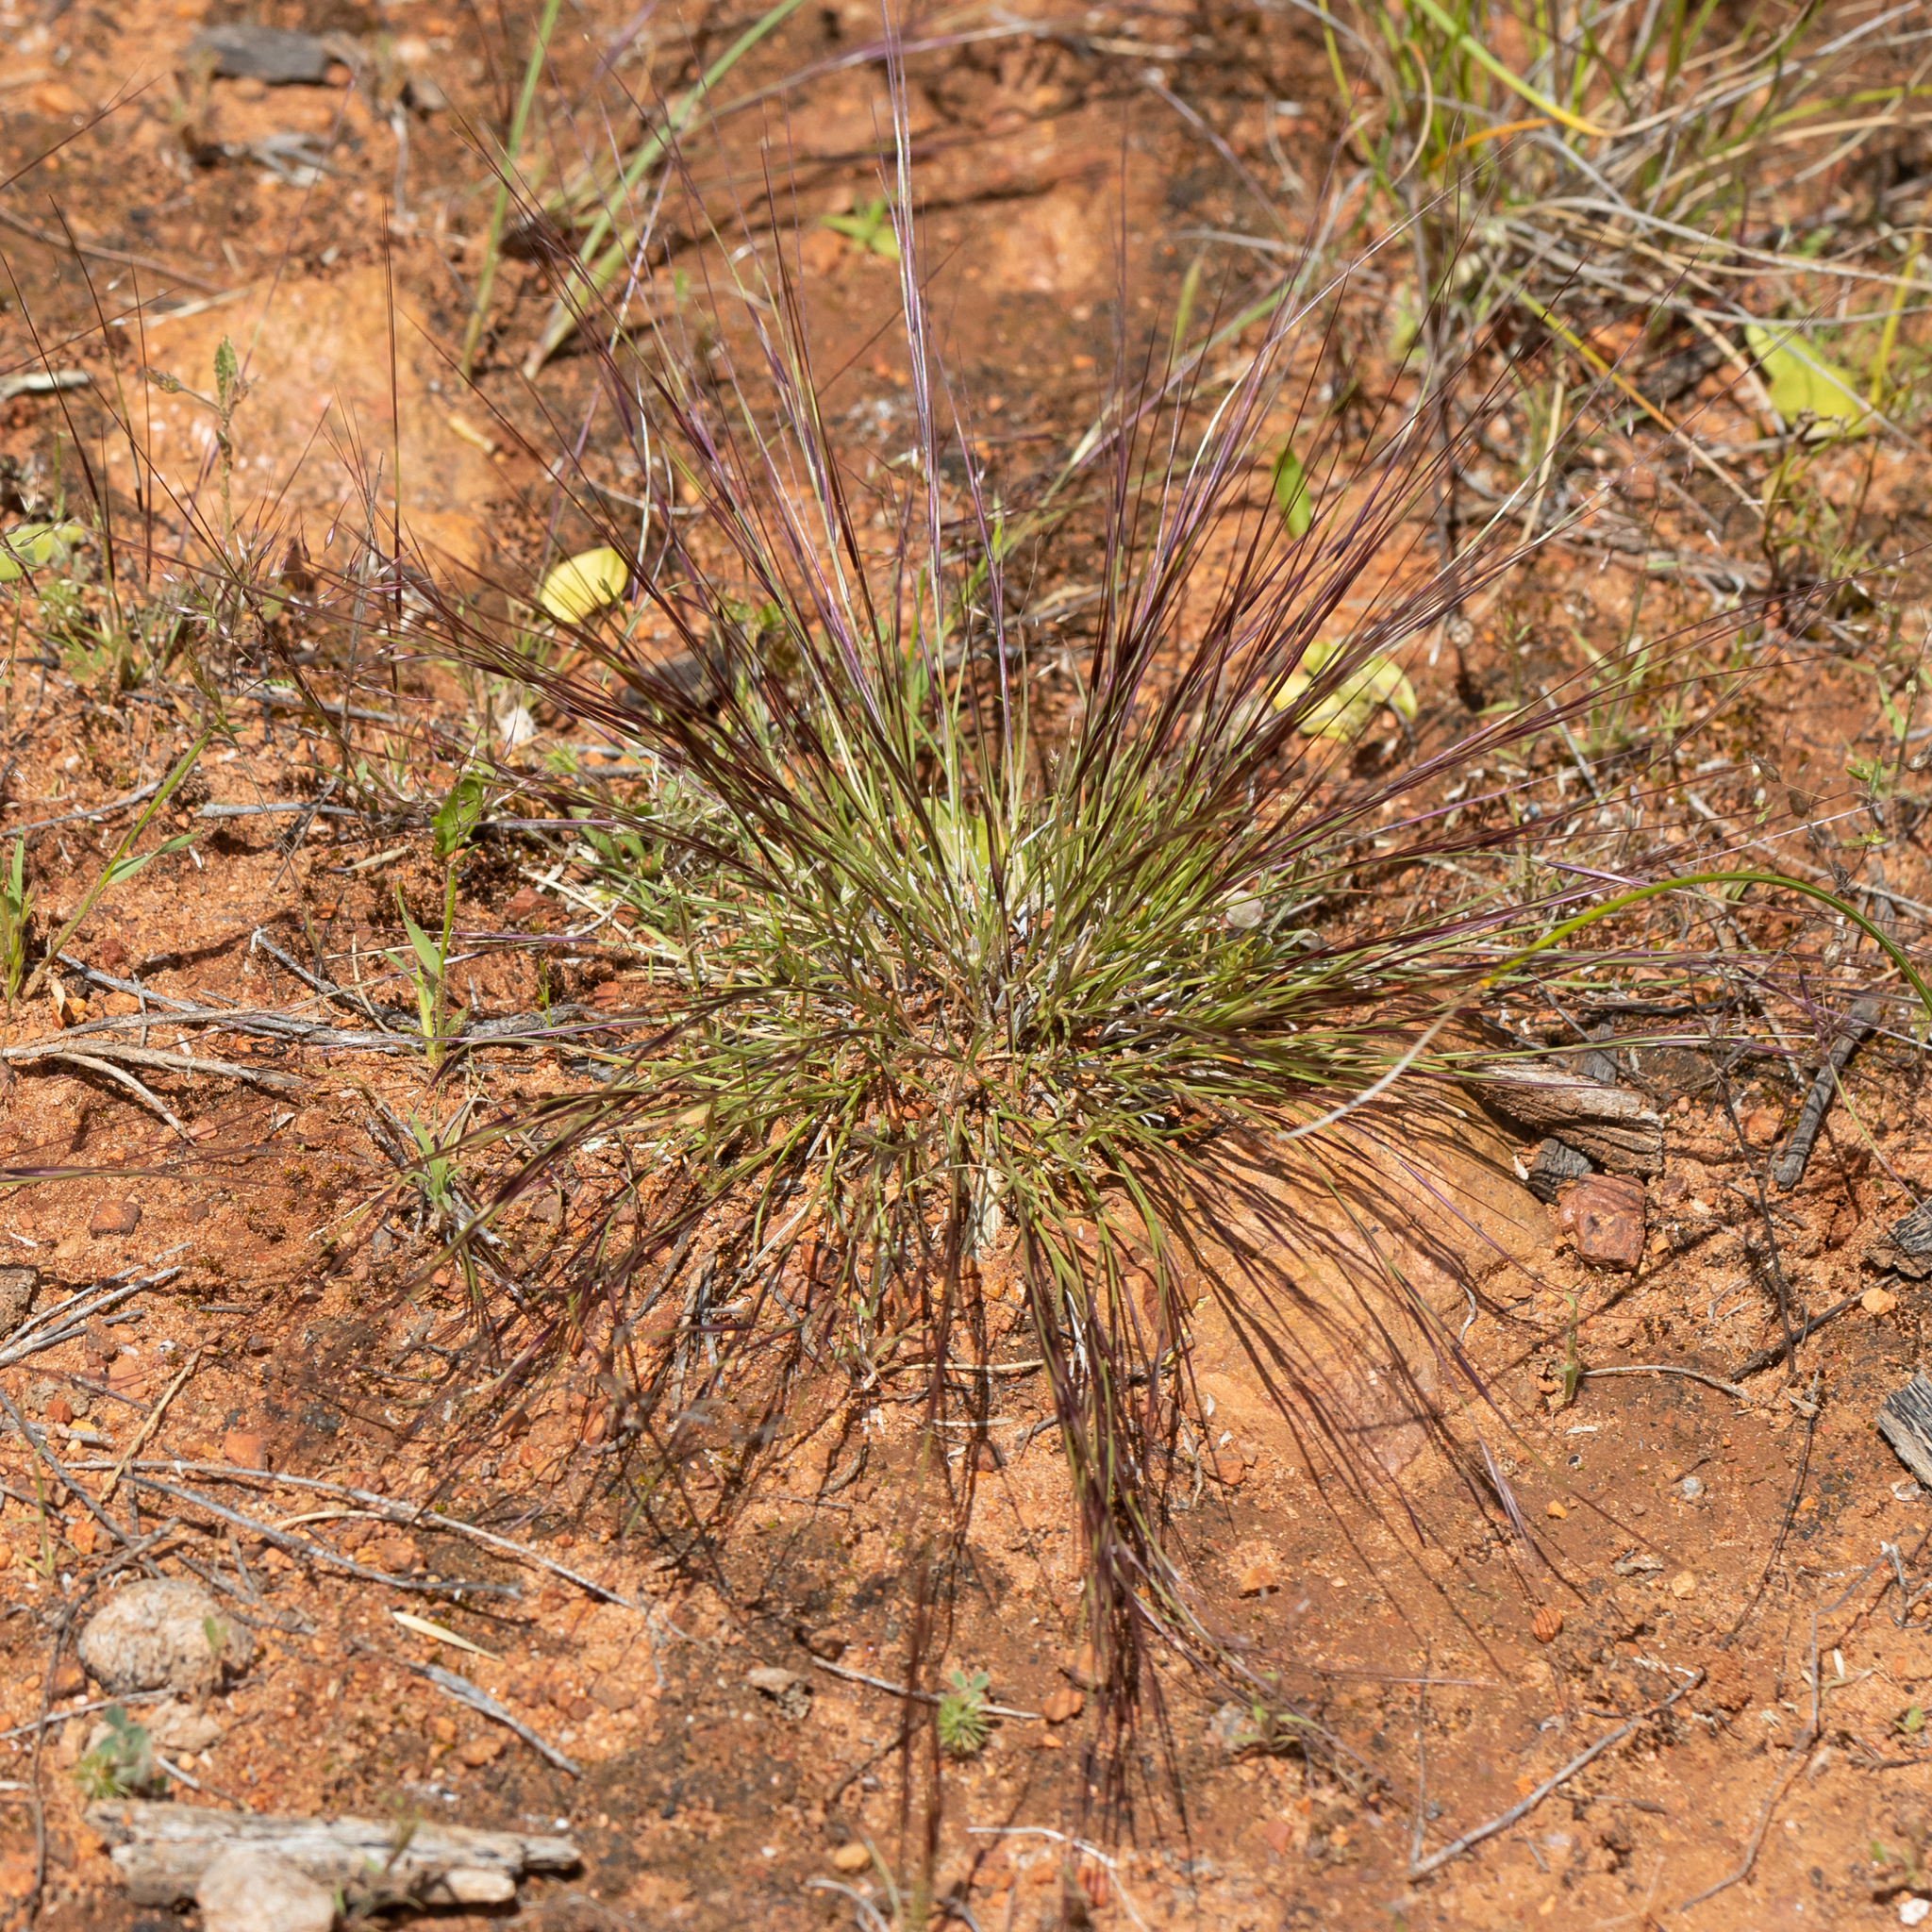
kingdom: Plantae
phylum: Tracheophyta
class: Liliopsida
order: Poales
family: Poaceae
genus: Aristida
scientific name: Aristida contorta
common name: Bunch kerosene grass
